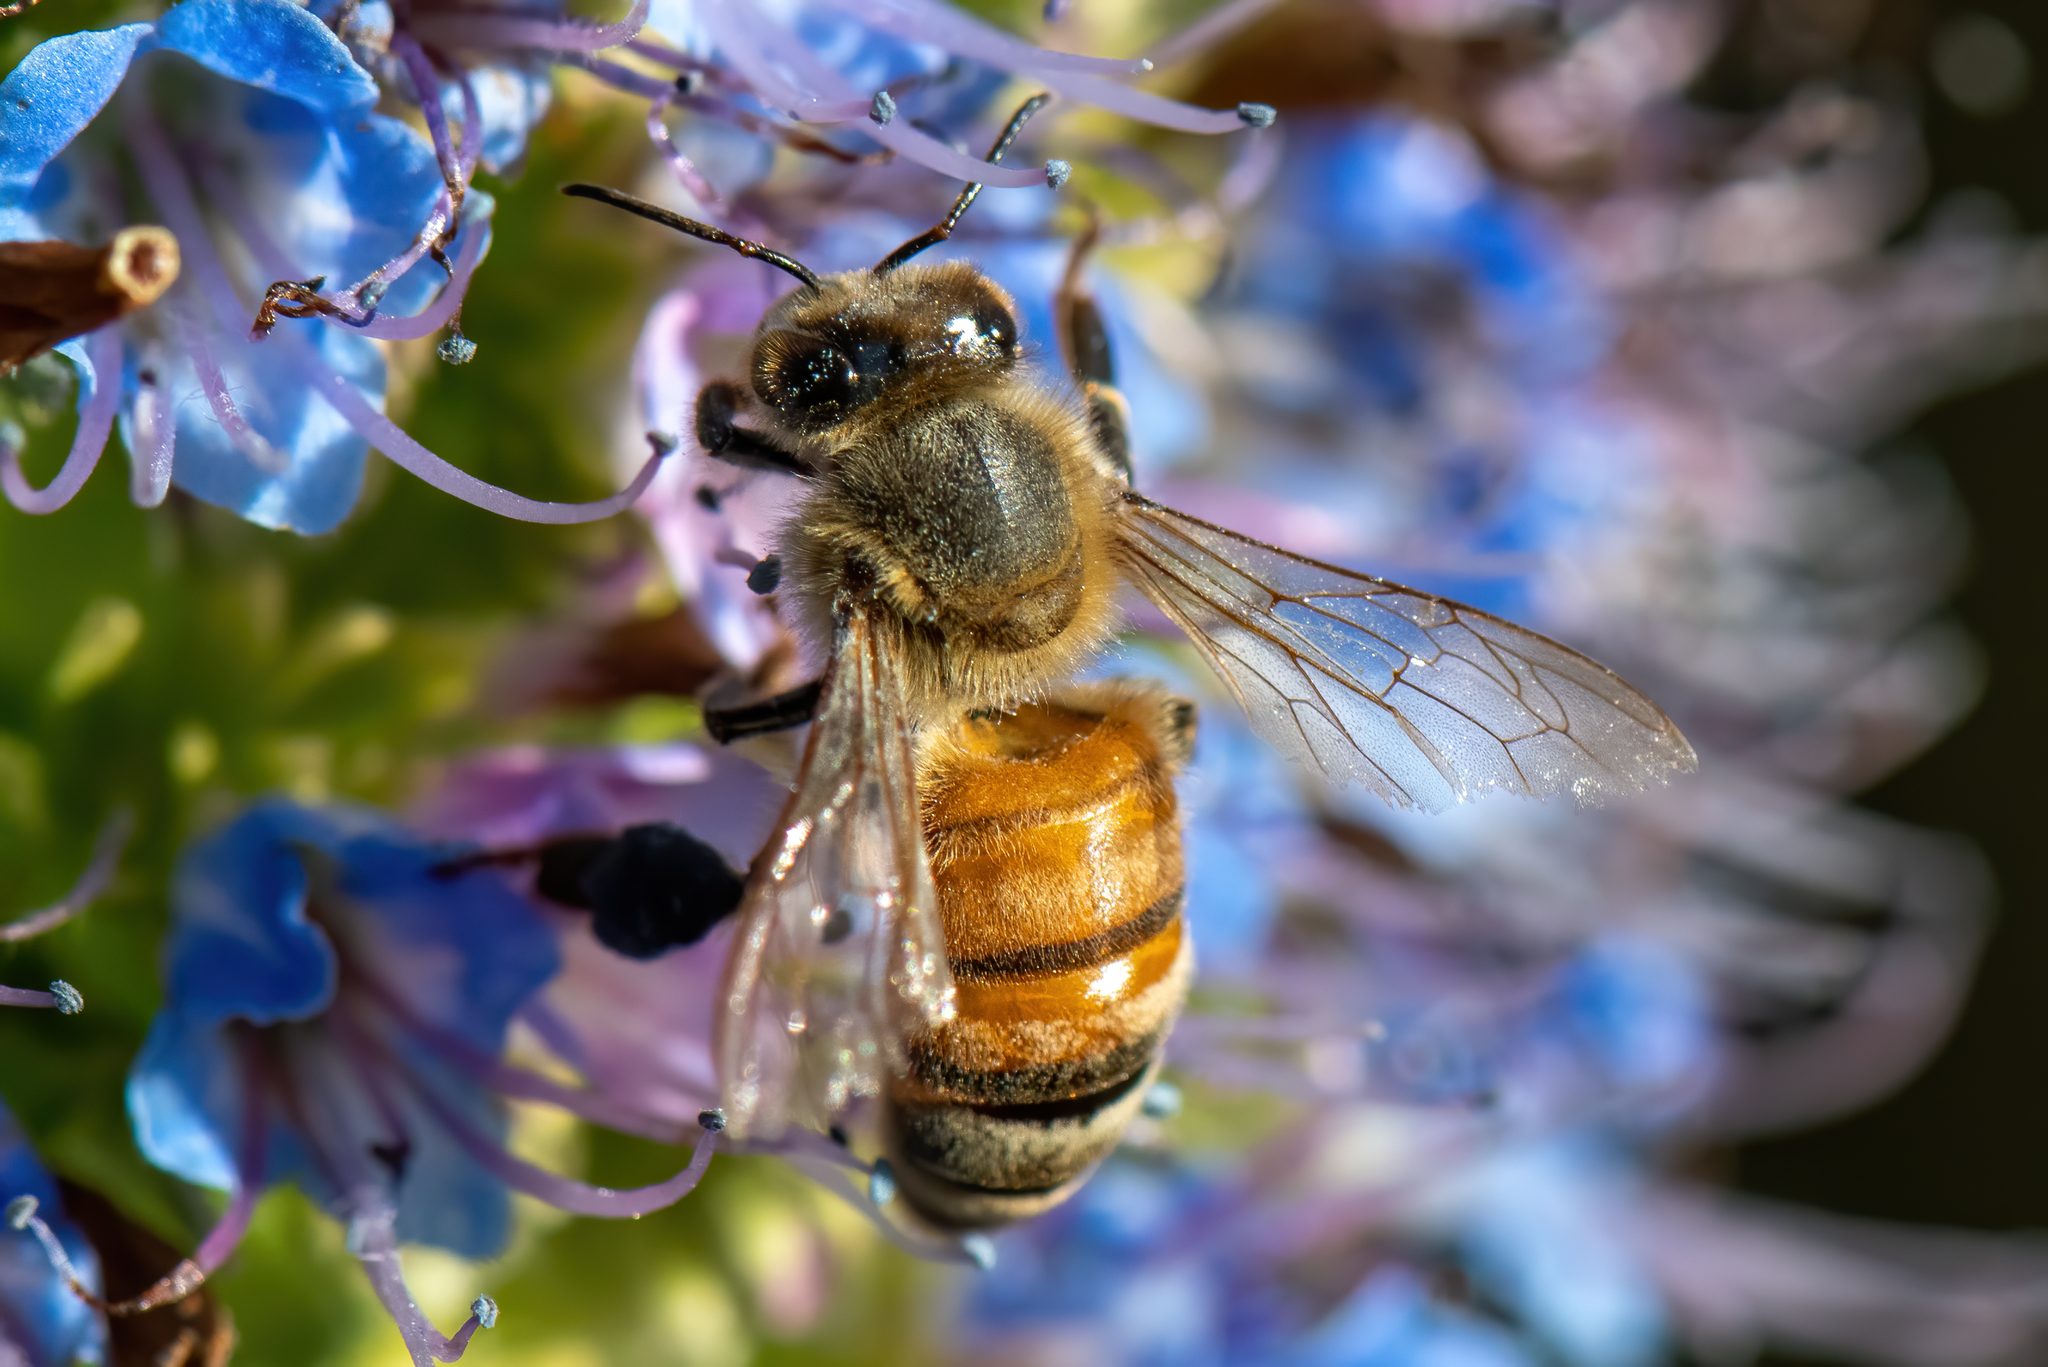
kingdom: Animalia
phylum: Arthropoda
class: Insecta
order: Hymenoptera
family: Apidae
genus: Apis
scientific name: Apis mellifera
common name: Honey bee
